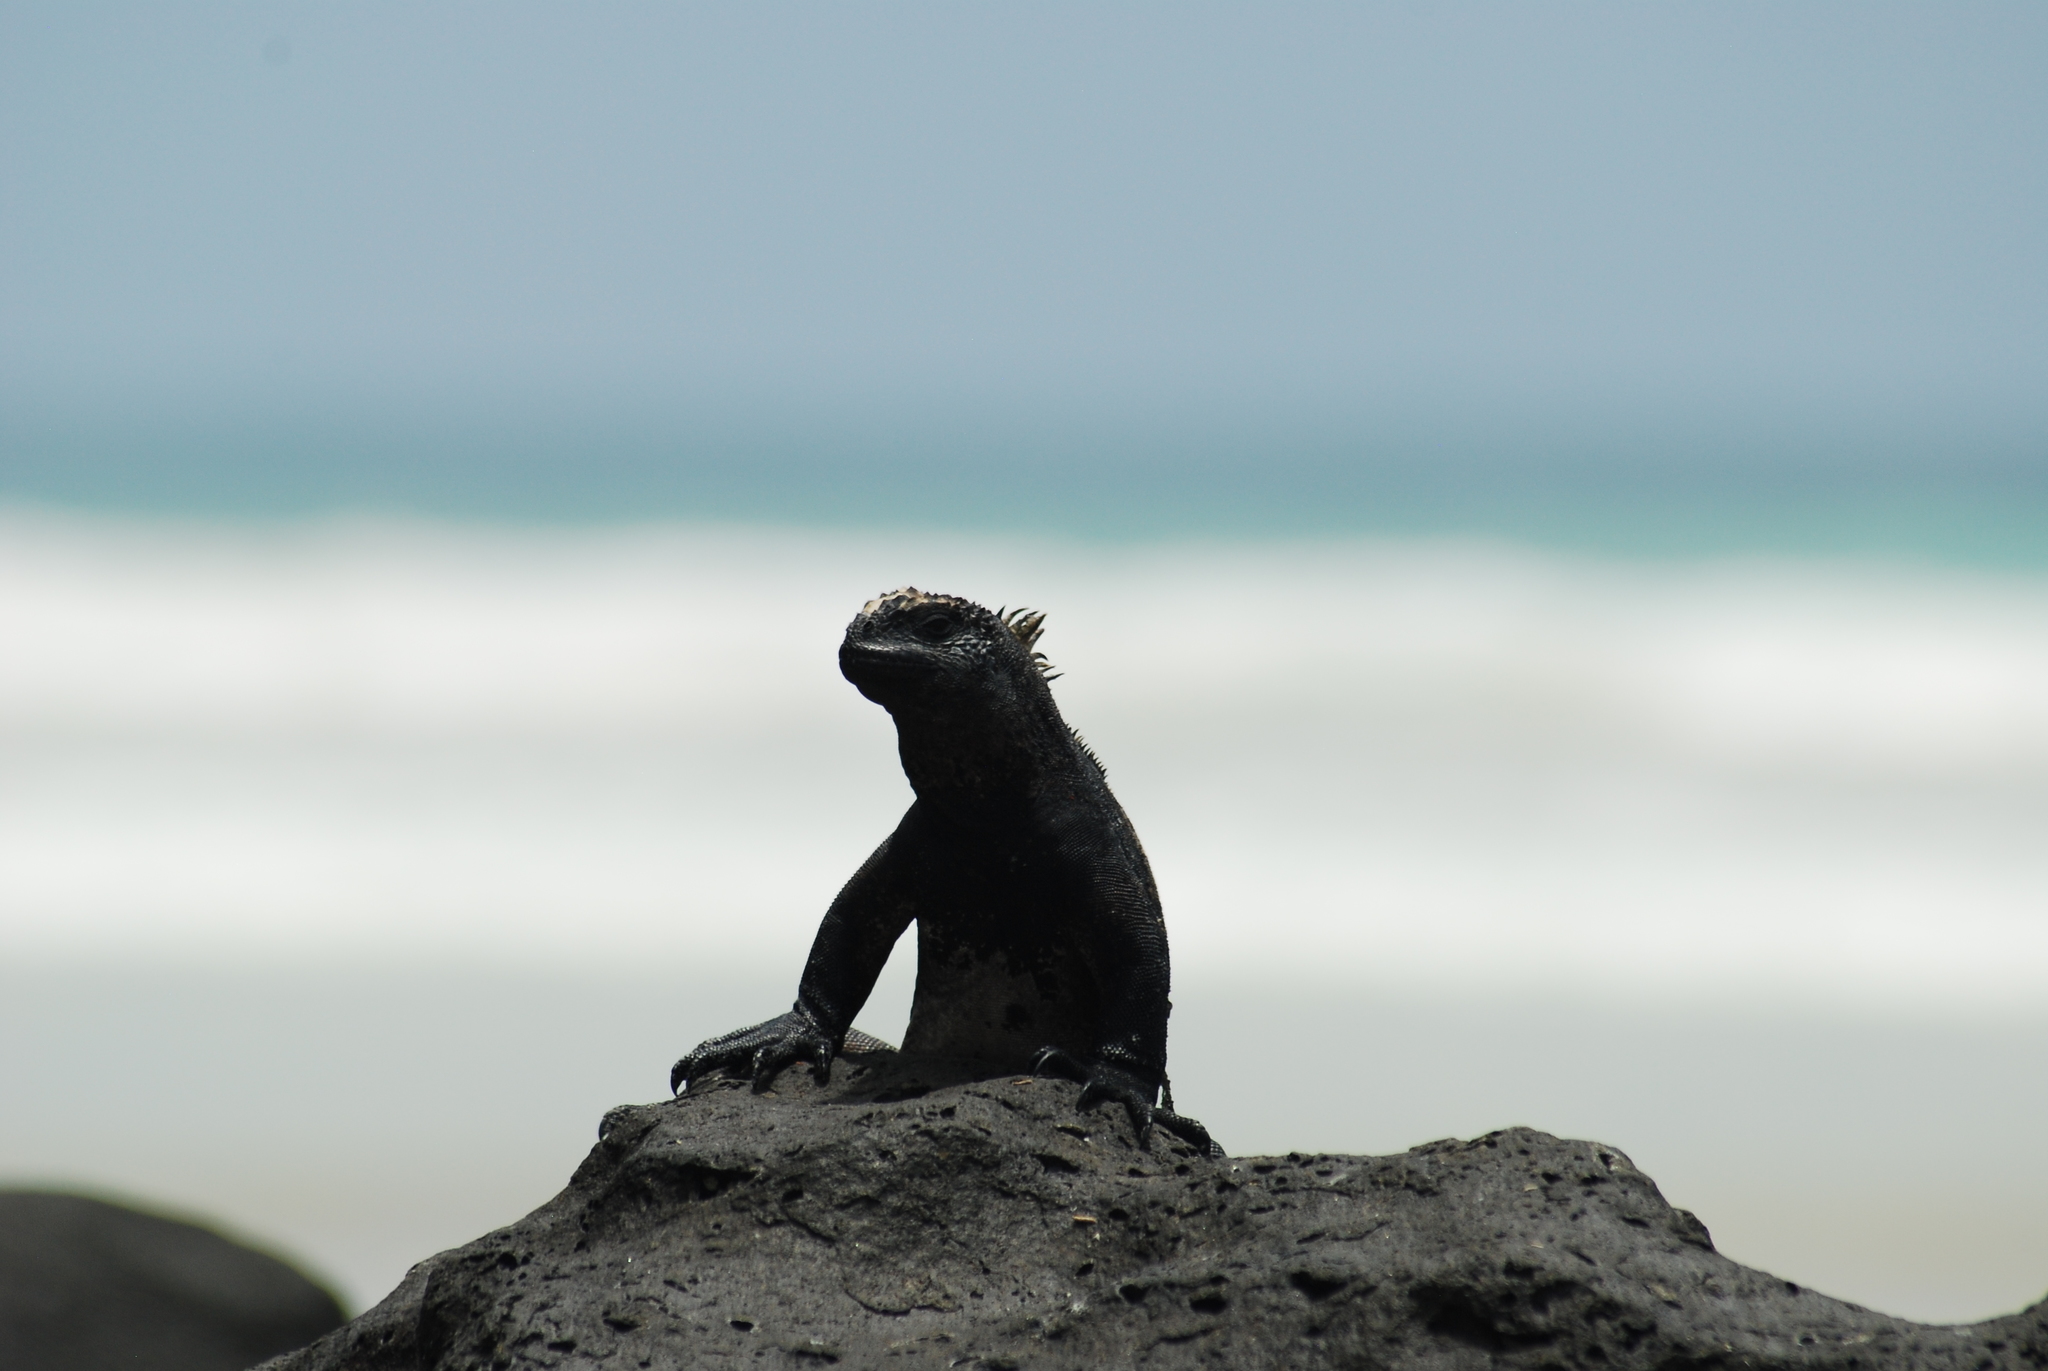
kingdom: Animalia
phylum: Chordata
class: Squamata
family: Iguanidae
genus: Amblyrhynchus
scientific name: Amblyrhynchus cristatus
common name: Marine iguana
